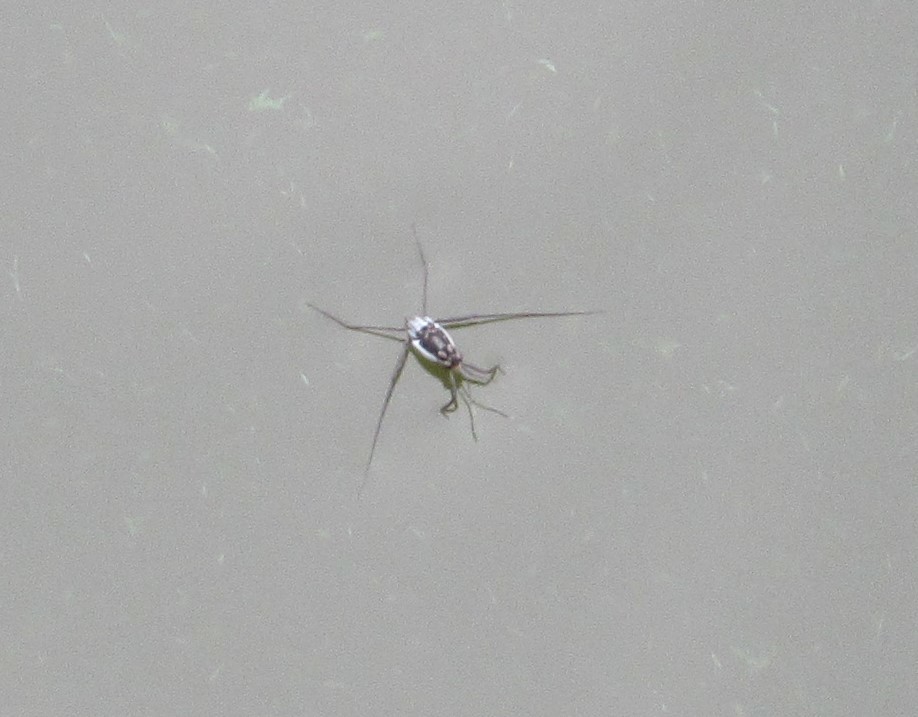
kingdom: Animalia
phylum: Arthropoda
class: Insecta
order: Hemiptera
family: Gerridae
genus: Trepobates
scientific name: Trepobates subnitidus
